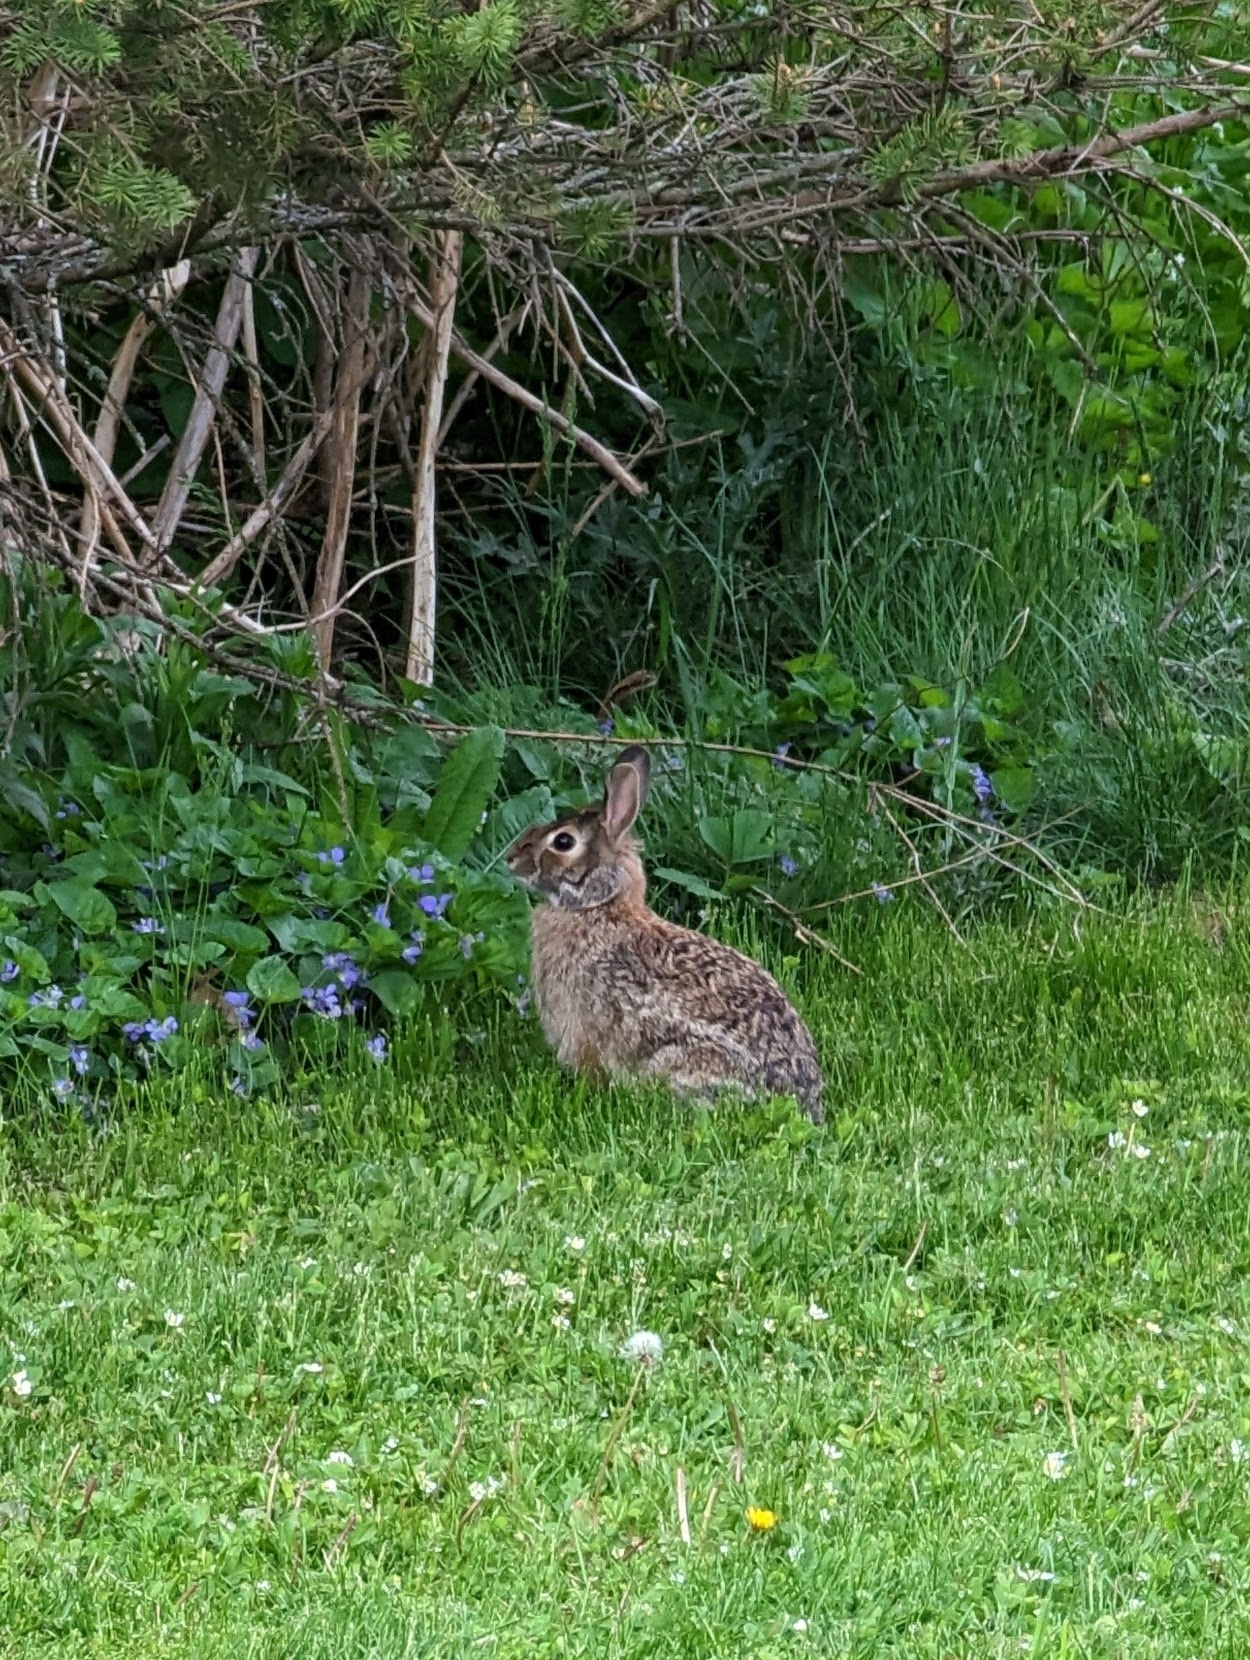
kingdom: Animalia
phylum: Chordata
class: Mammalia
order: Lagomorpha
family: Leporidae
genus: Sylvilagus
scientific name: Sylvilagus floridanus
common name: Eastern cottontail
